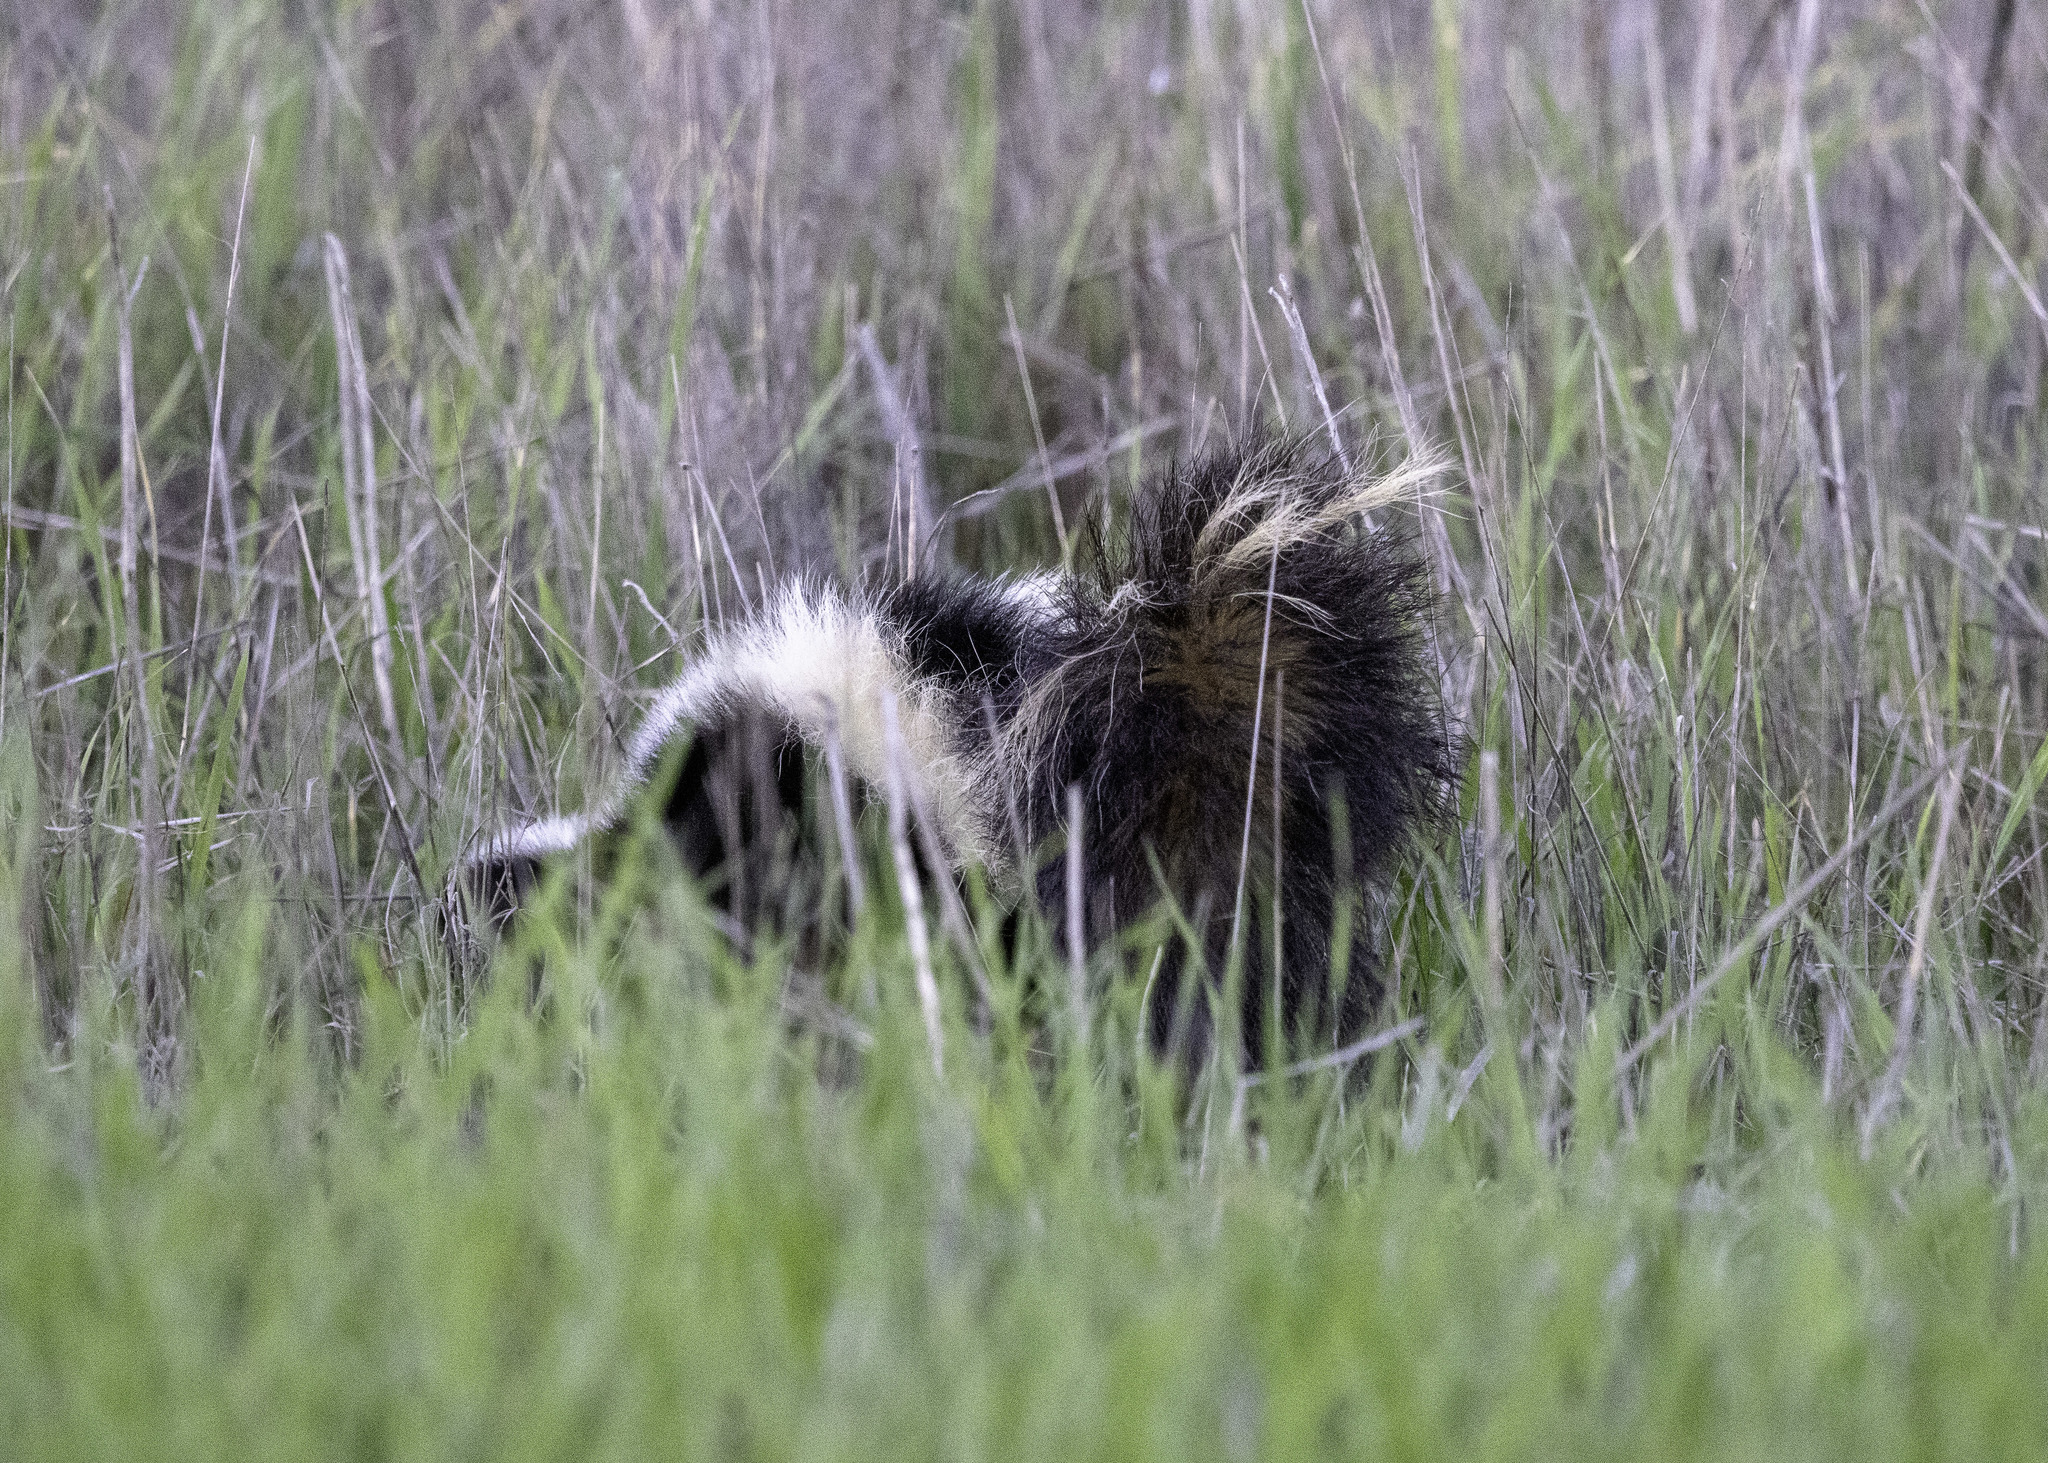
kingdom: Animalia
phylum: Chordata
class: Mammalia
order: Carnivora
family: Mephitidae
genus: Mephitis
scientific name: Mephitis mephitis
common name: Striped skunk
